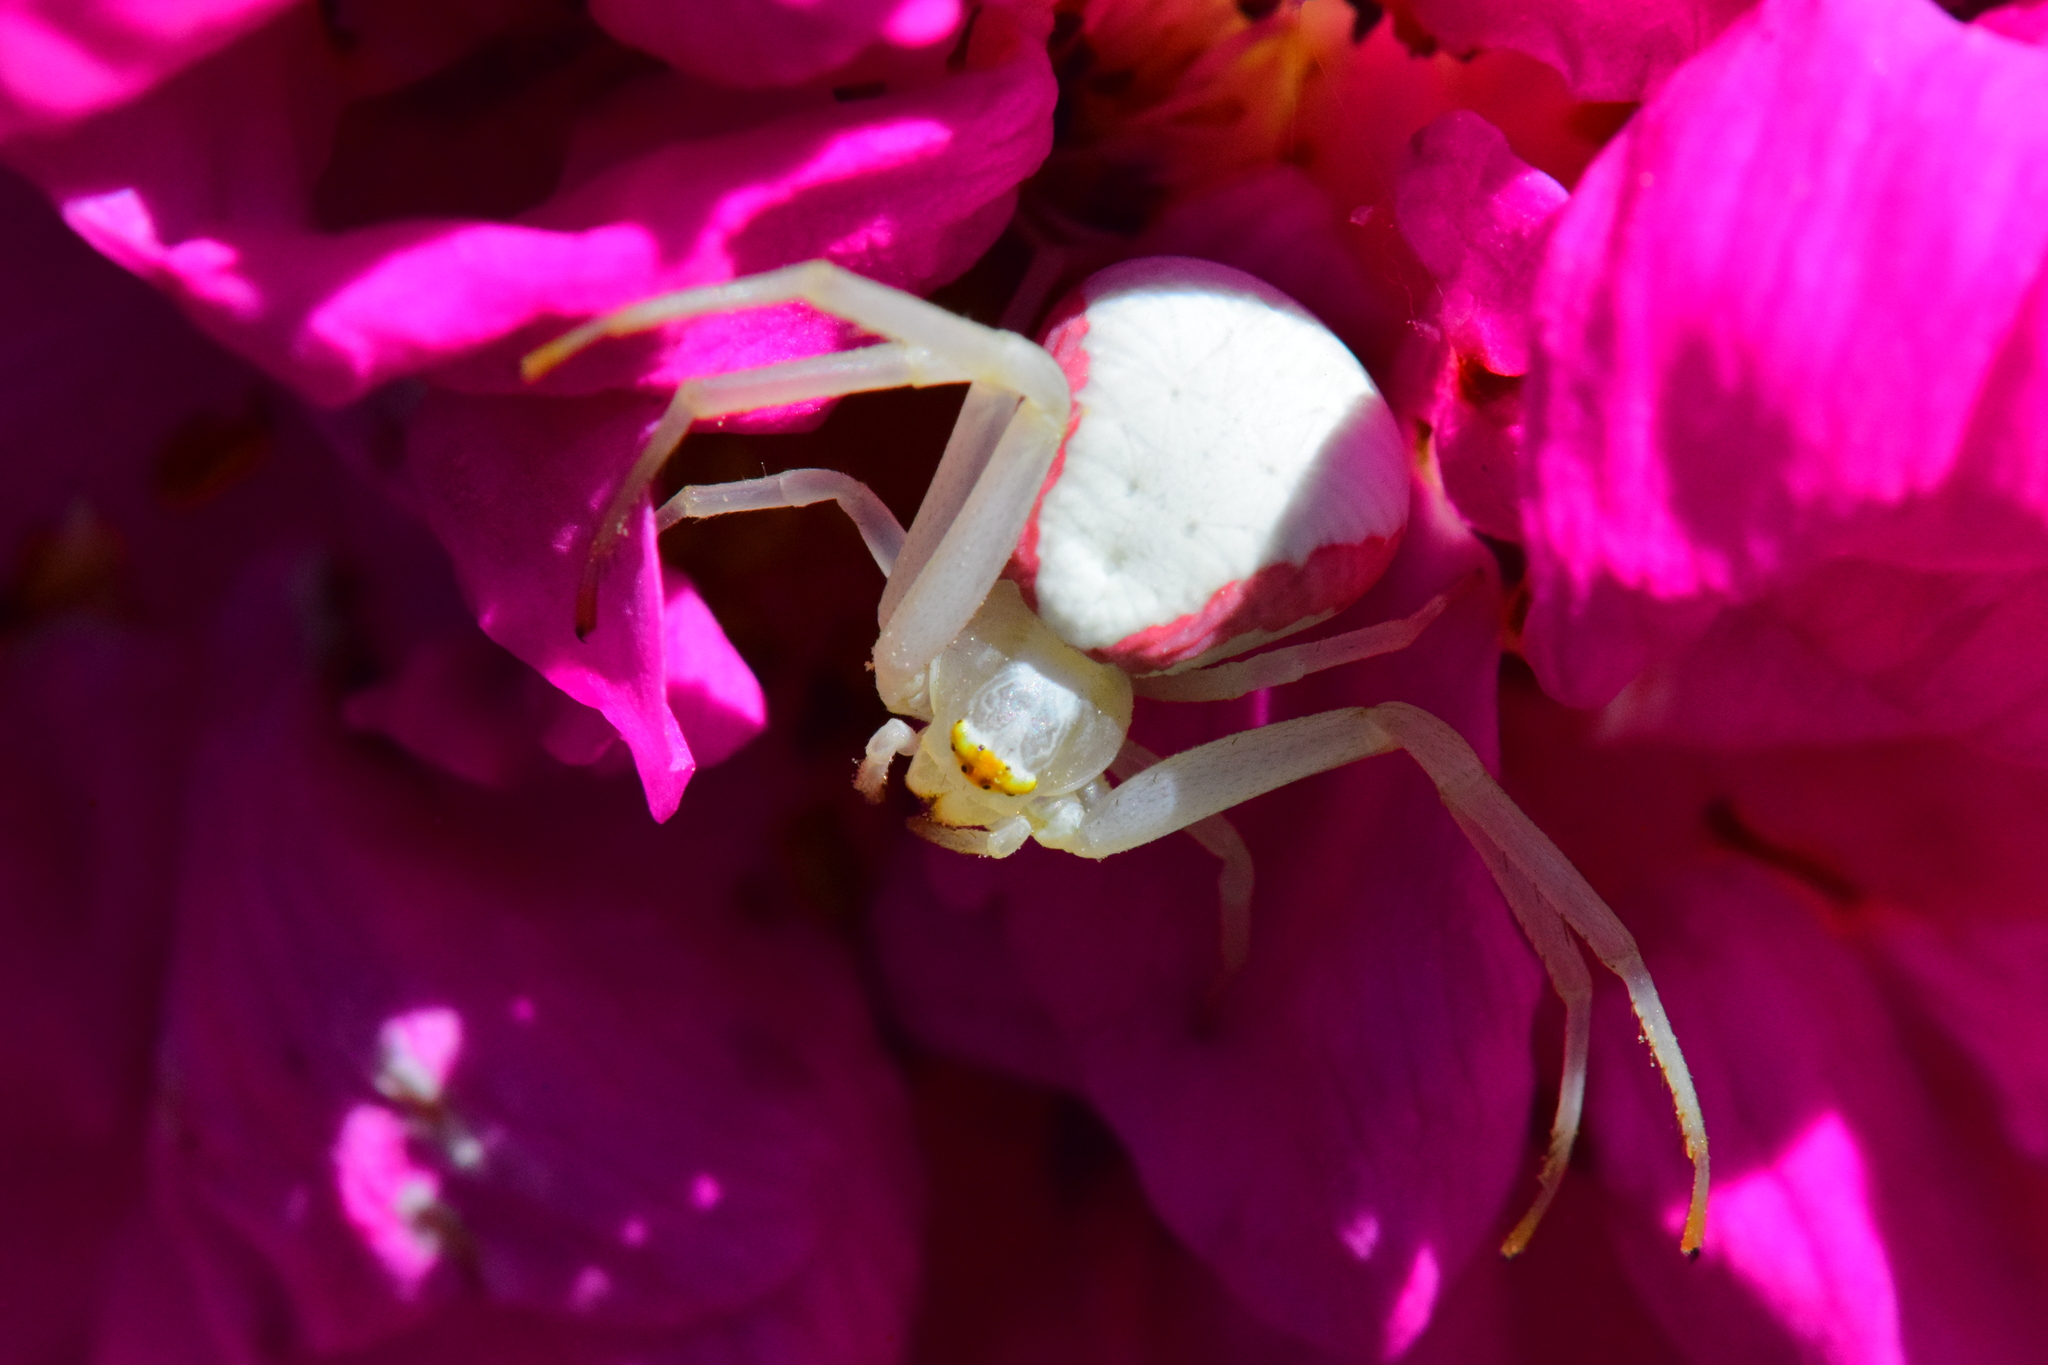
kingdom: Animalia
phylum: Arthropoda
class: Arachnida
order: Araneae
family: Thomisidae
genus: Misumena
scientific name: Misumena vatia
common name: Goldenrod crab spider
